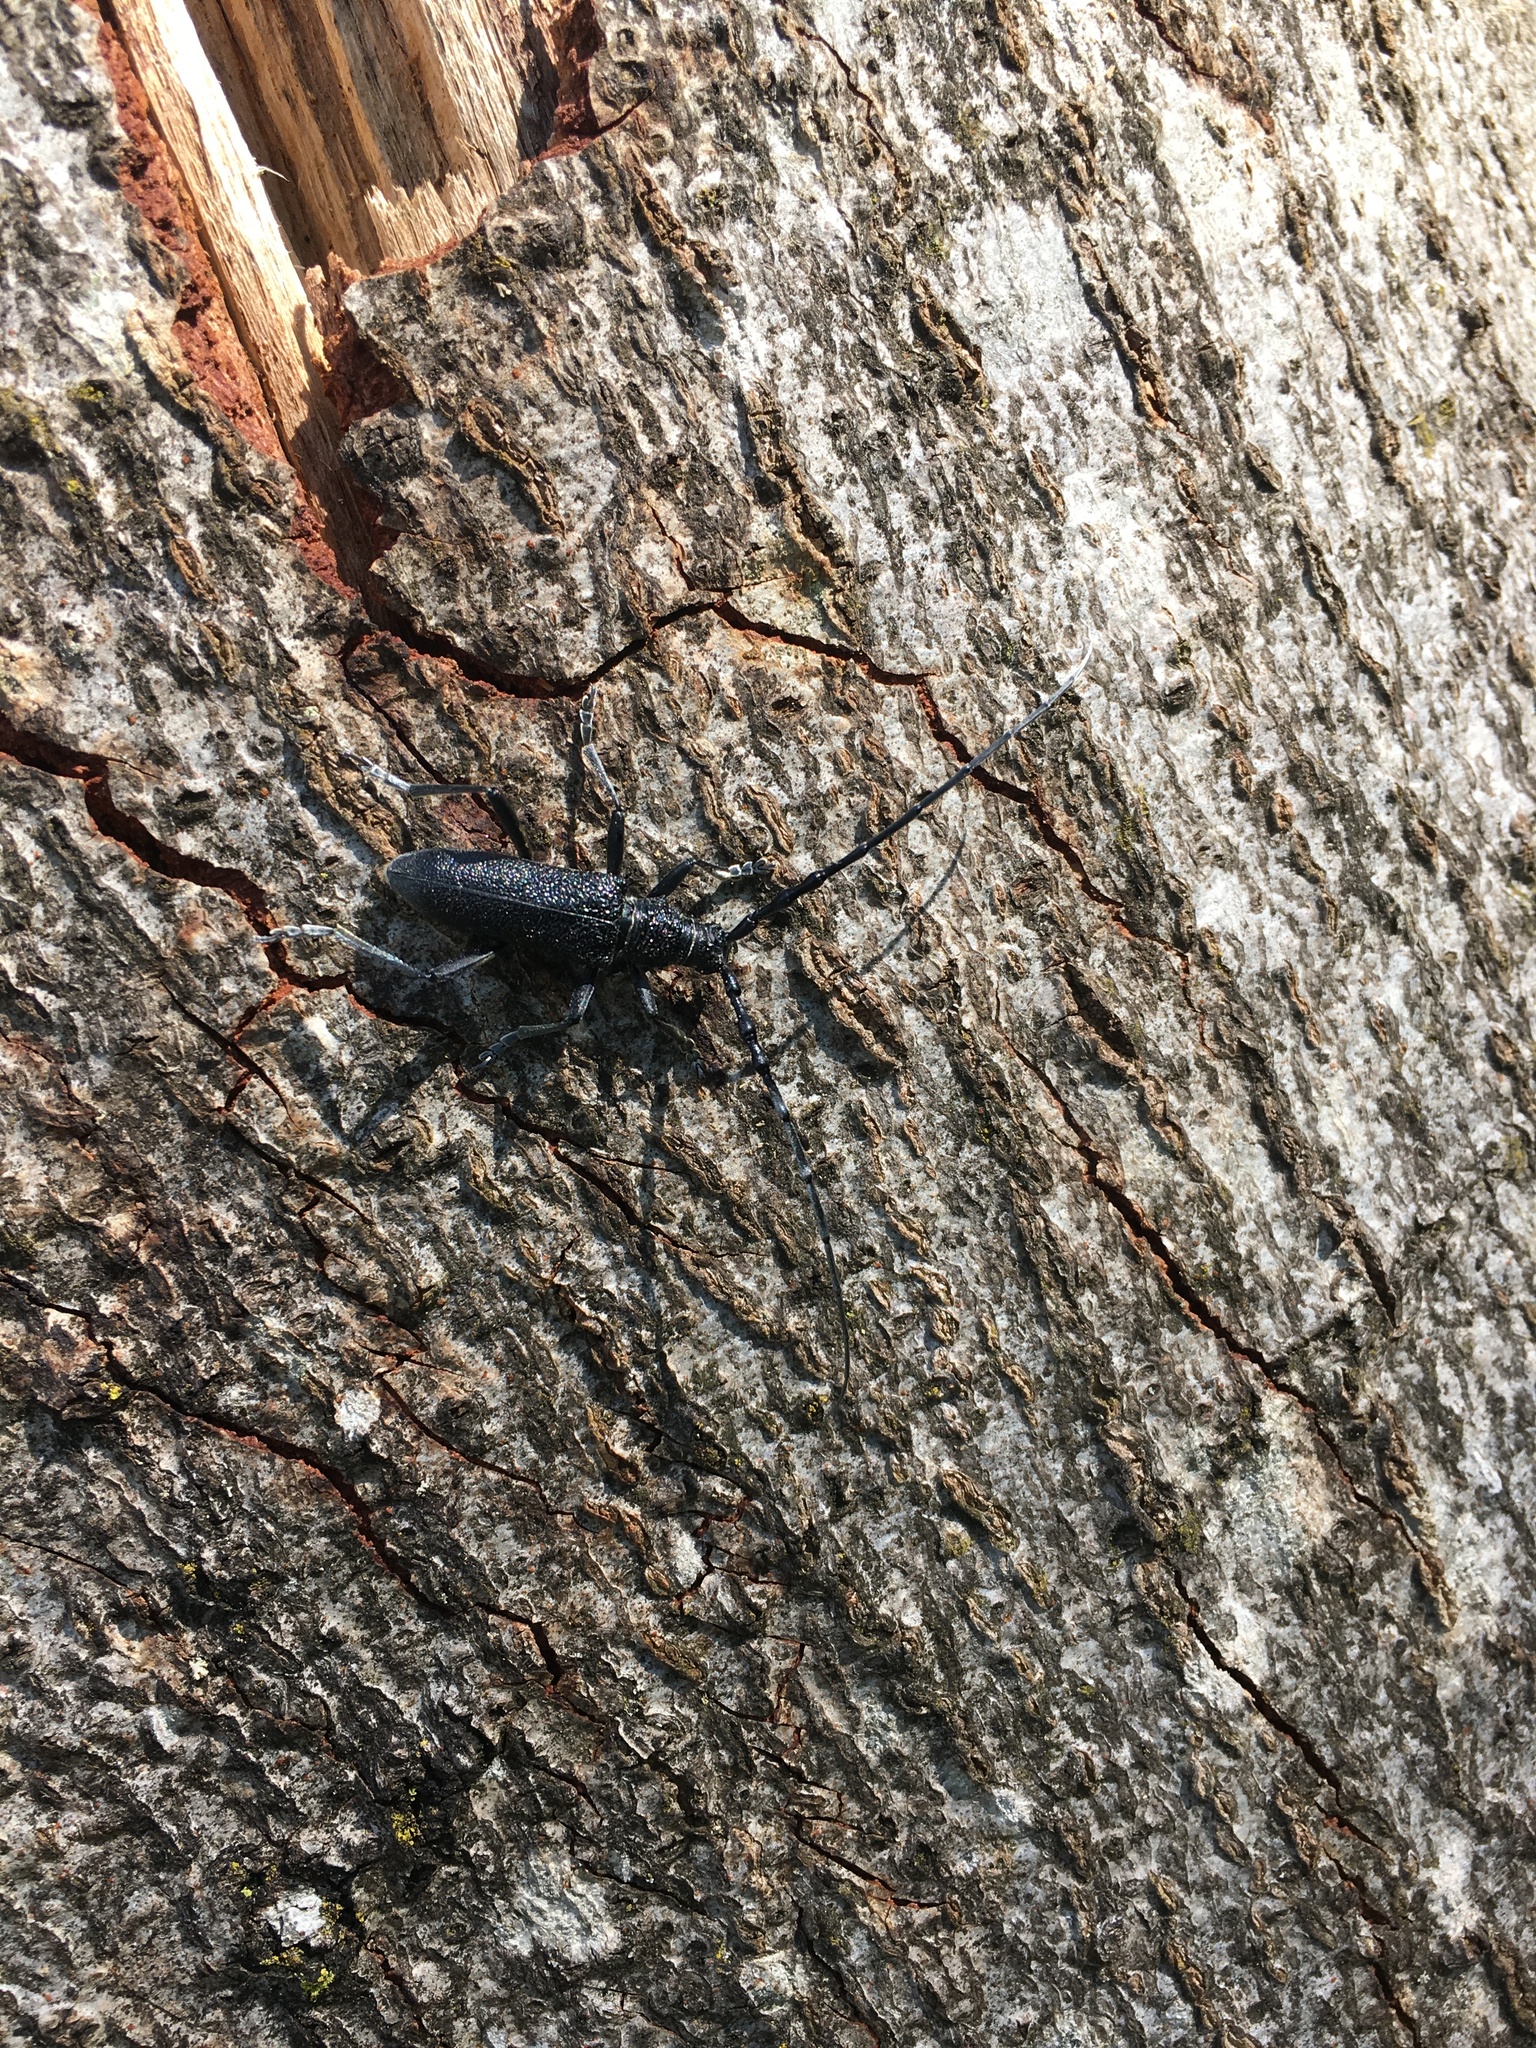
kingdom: Animalia
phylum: Arthropoda
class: Insecta
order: Coleoptera
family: Cerambycidae
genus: Cerambyx
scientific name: Cerambyx scopolii
